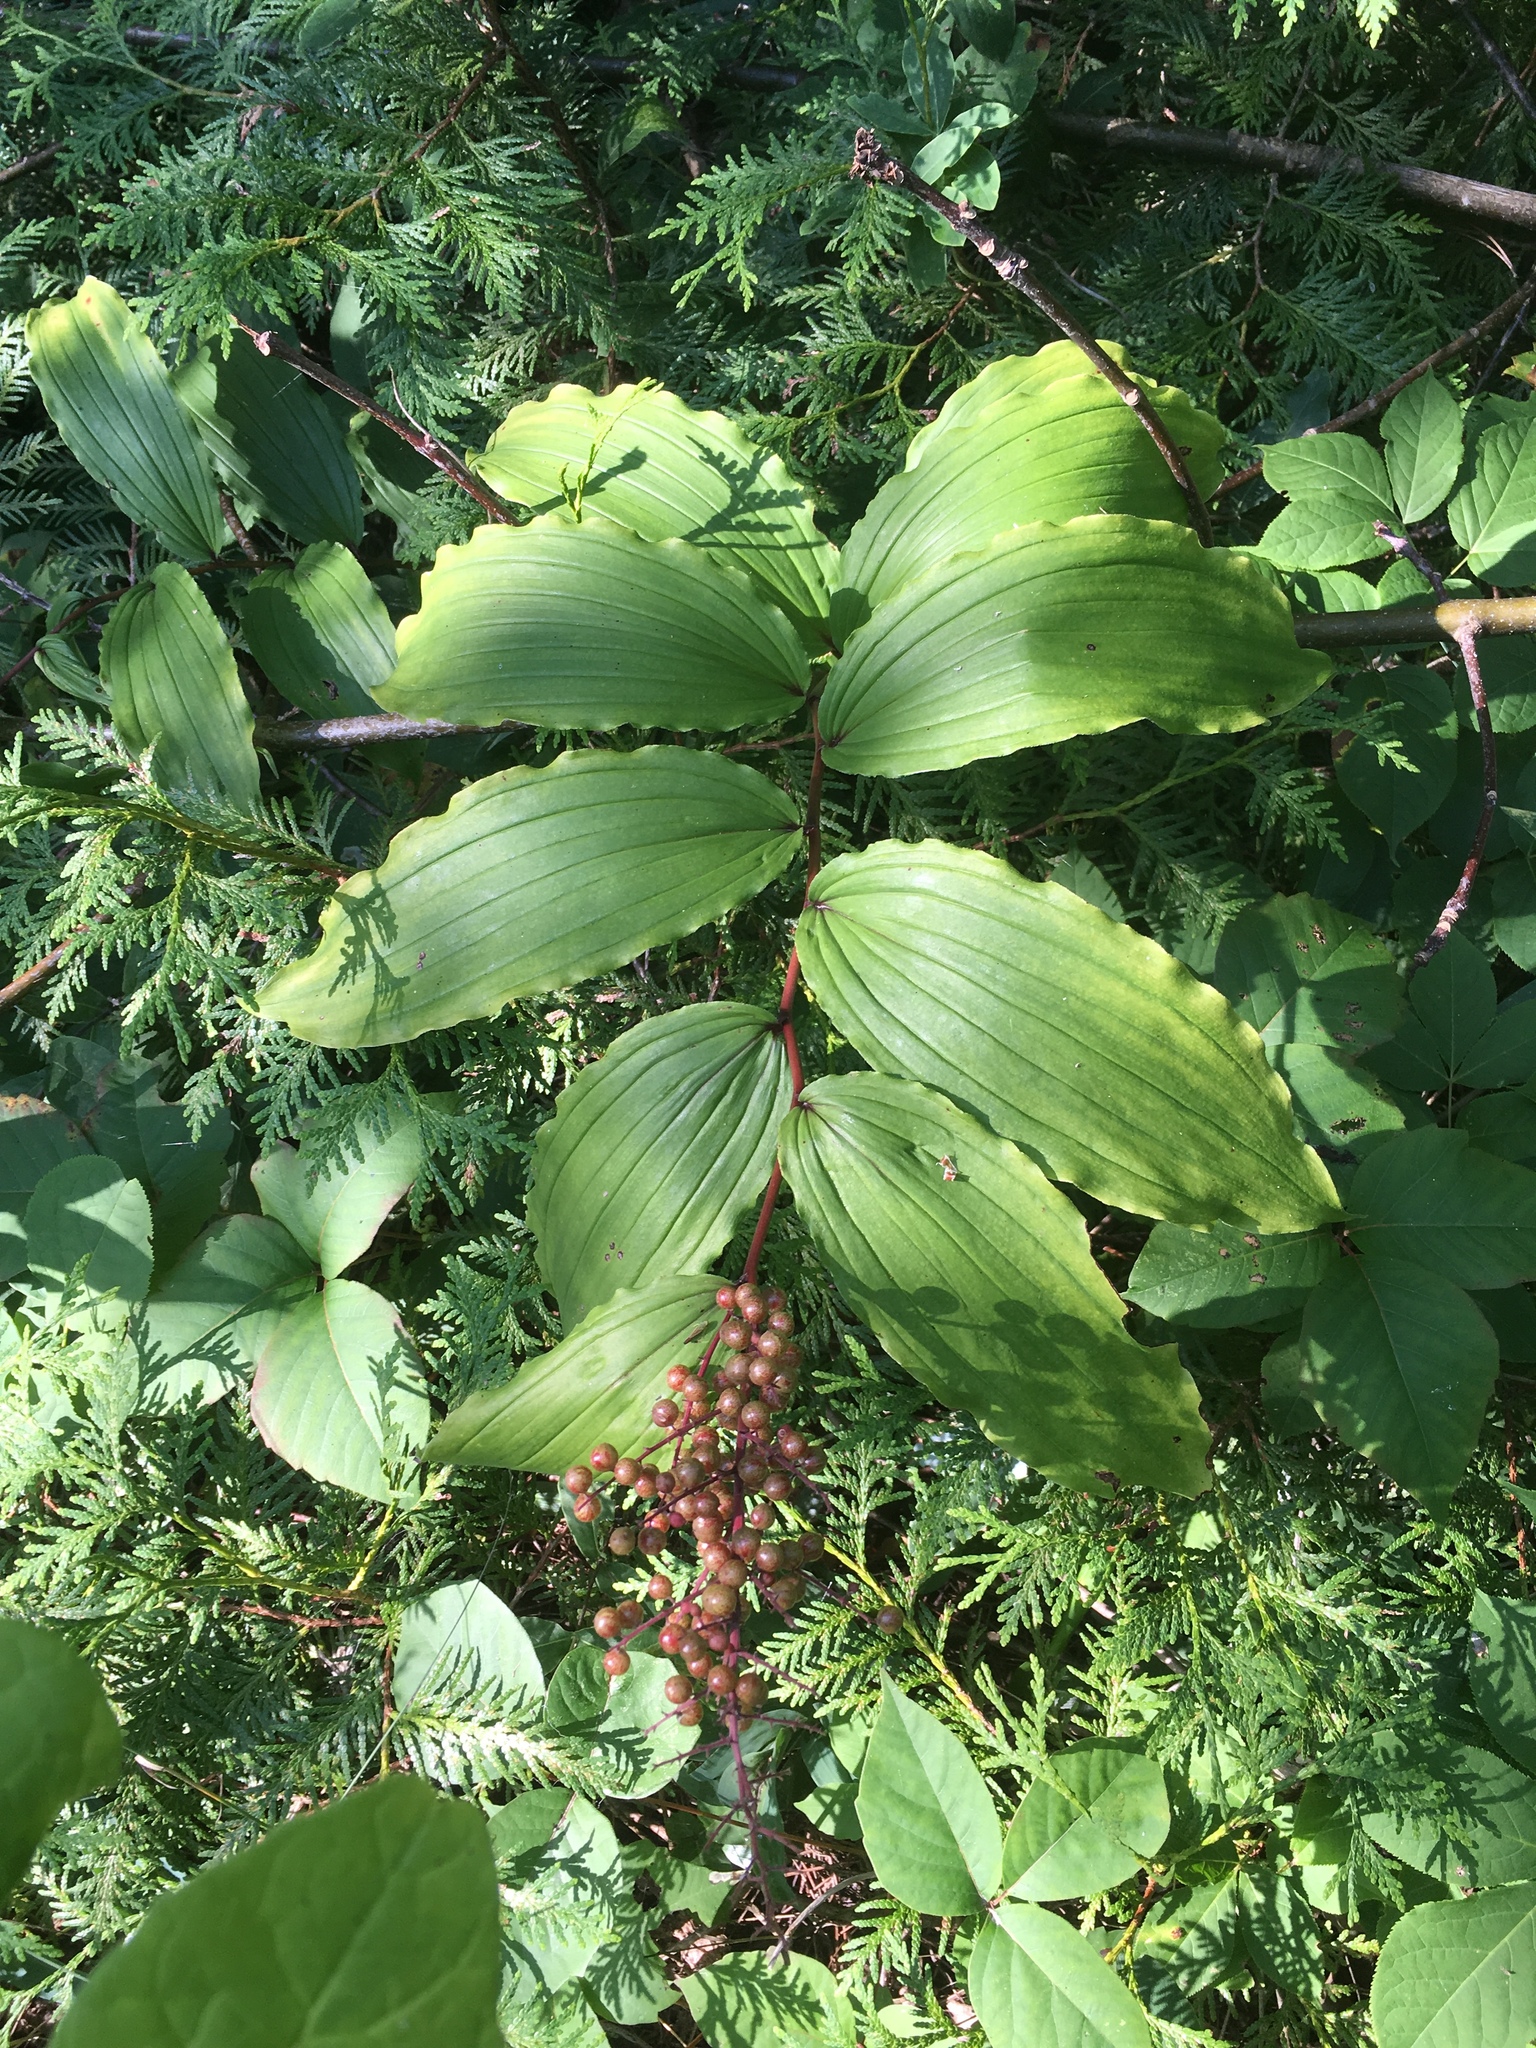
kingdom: Plantae
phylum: Tracheophyta
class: Liliopsida
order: Asparagales
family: Asparagaceae
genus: Maianthemum
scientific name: Maianthemum racemosum
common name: False spikenard
